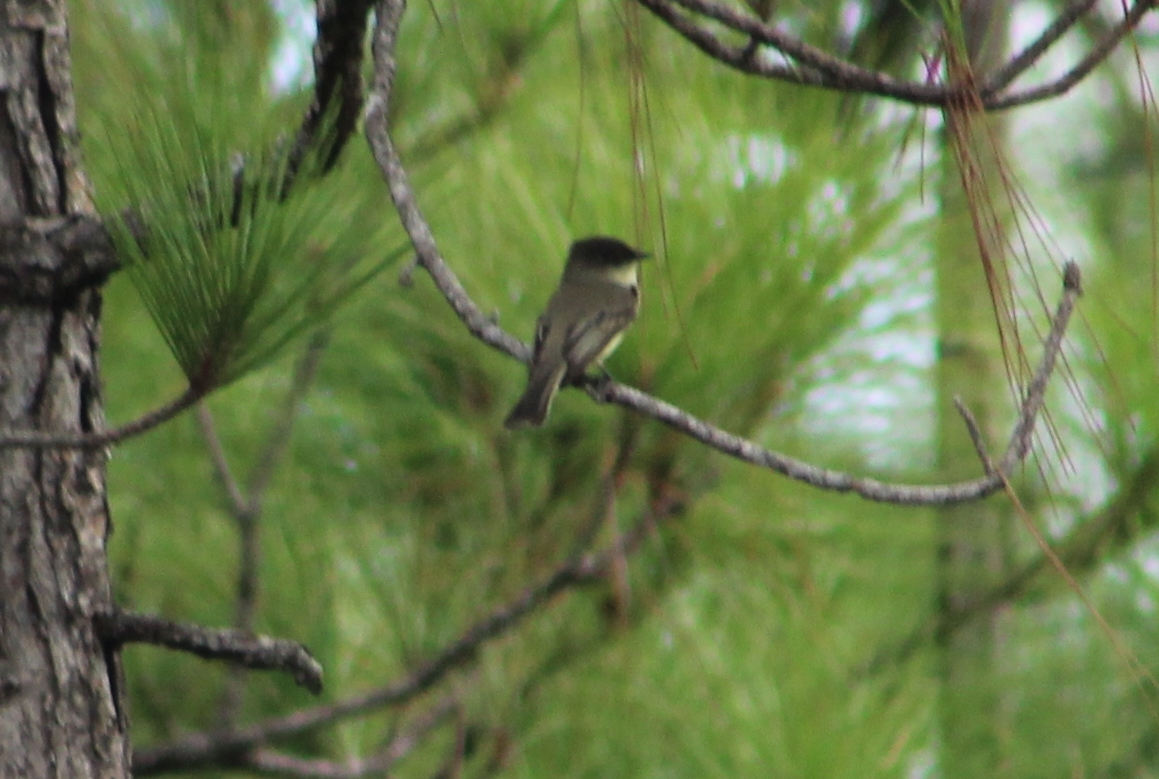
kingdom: Animalia
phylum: Chordata
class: Aves
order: Passeriformes
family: Tyrannidae
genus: Sayornis
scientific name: Sayornis phoebe
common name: Eastern phoebe
